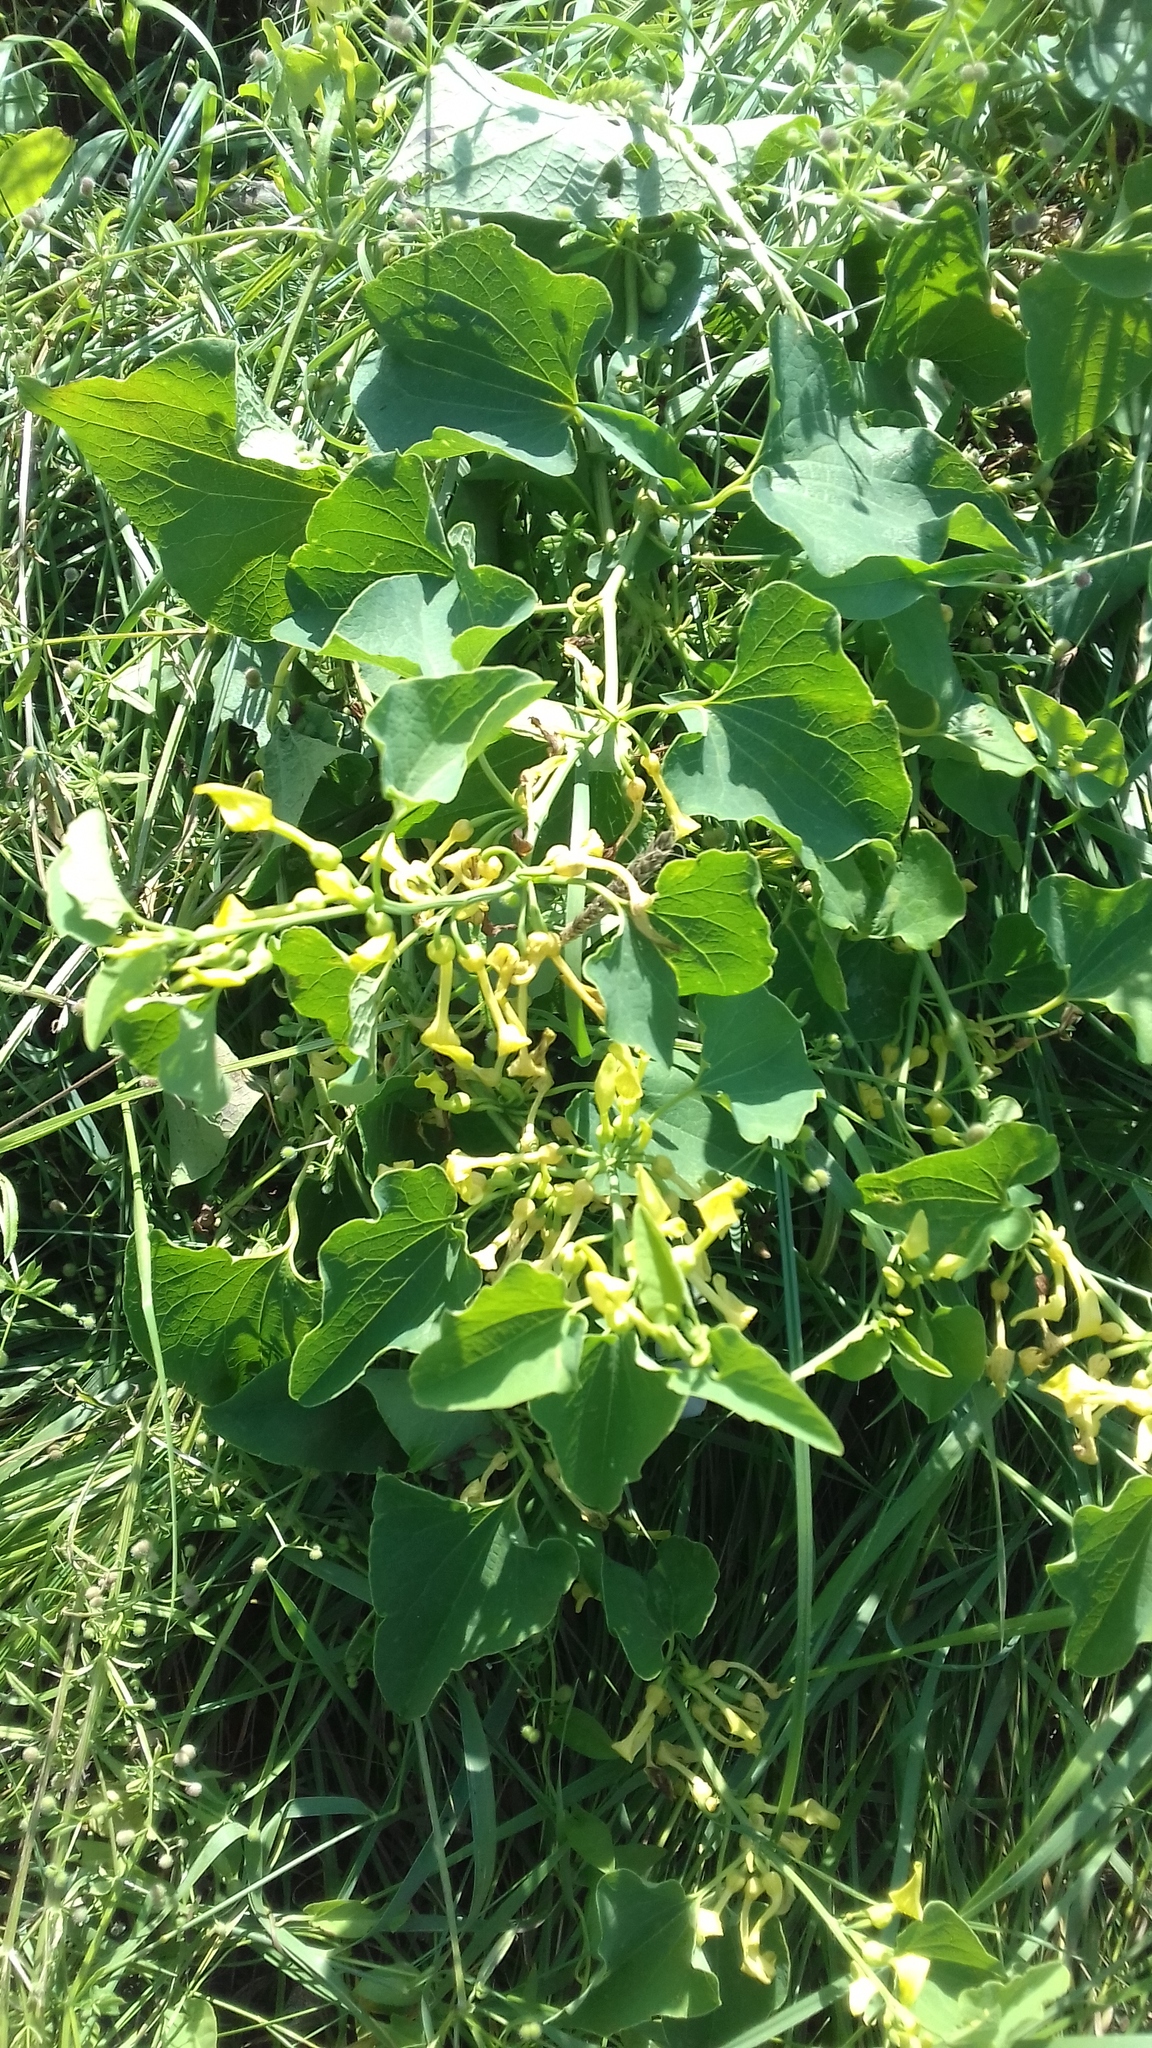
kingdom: Plantae
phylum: Tracheophyta
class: Magnoliopsida
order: Piperales
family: Aristolochiaceae
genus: Aristolochia
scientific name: Aristolochia clematitis
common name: Birthwort
